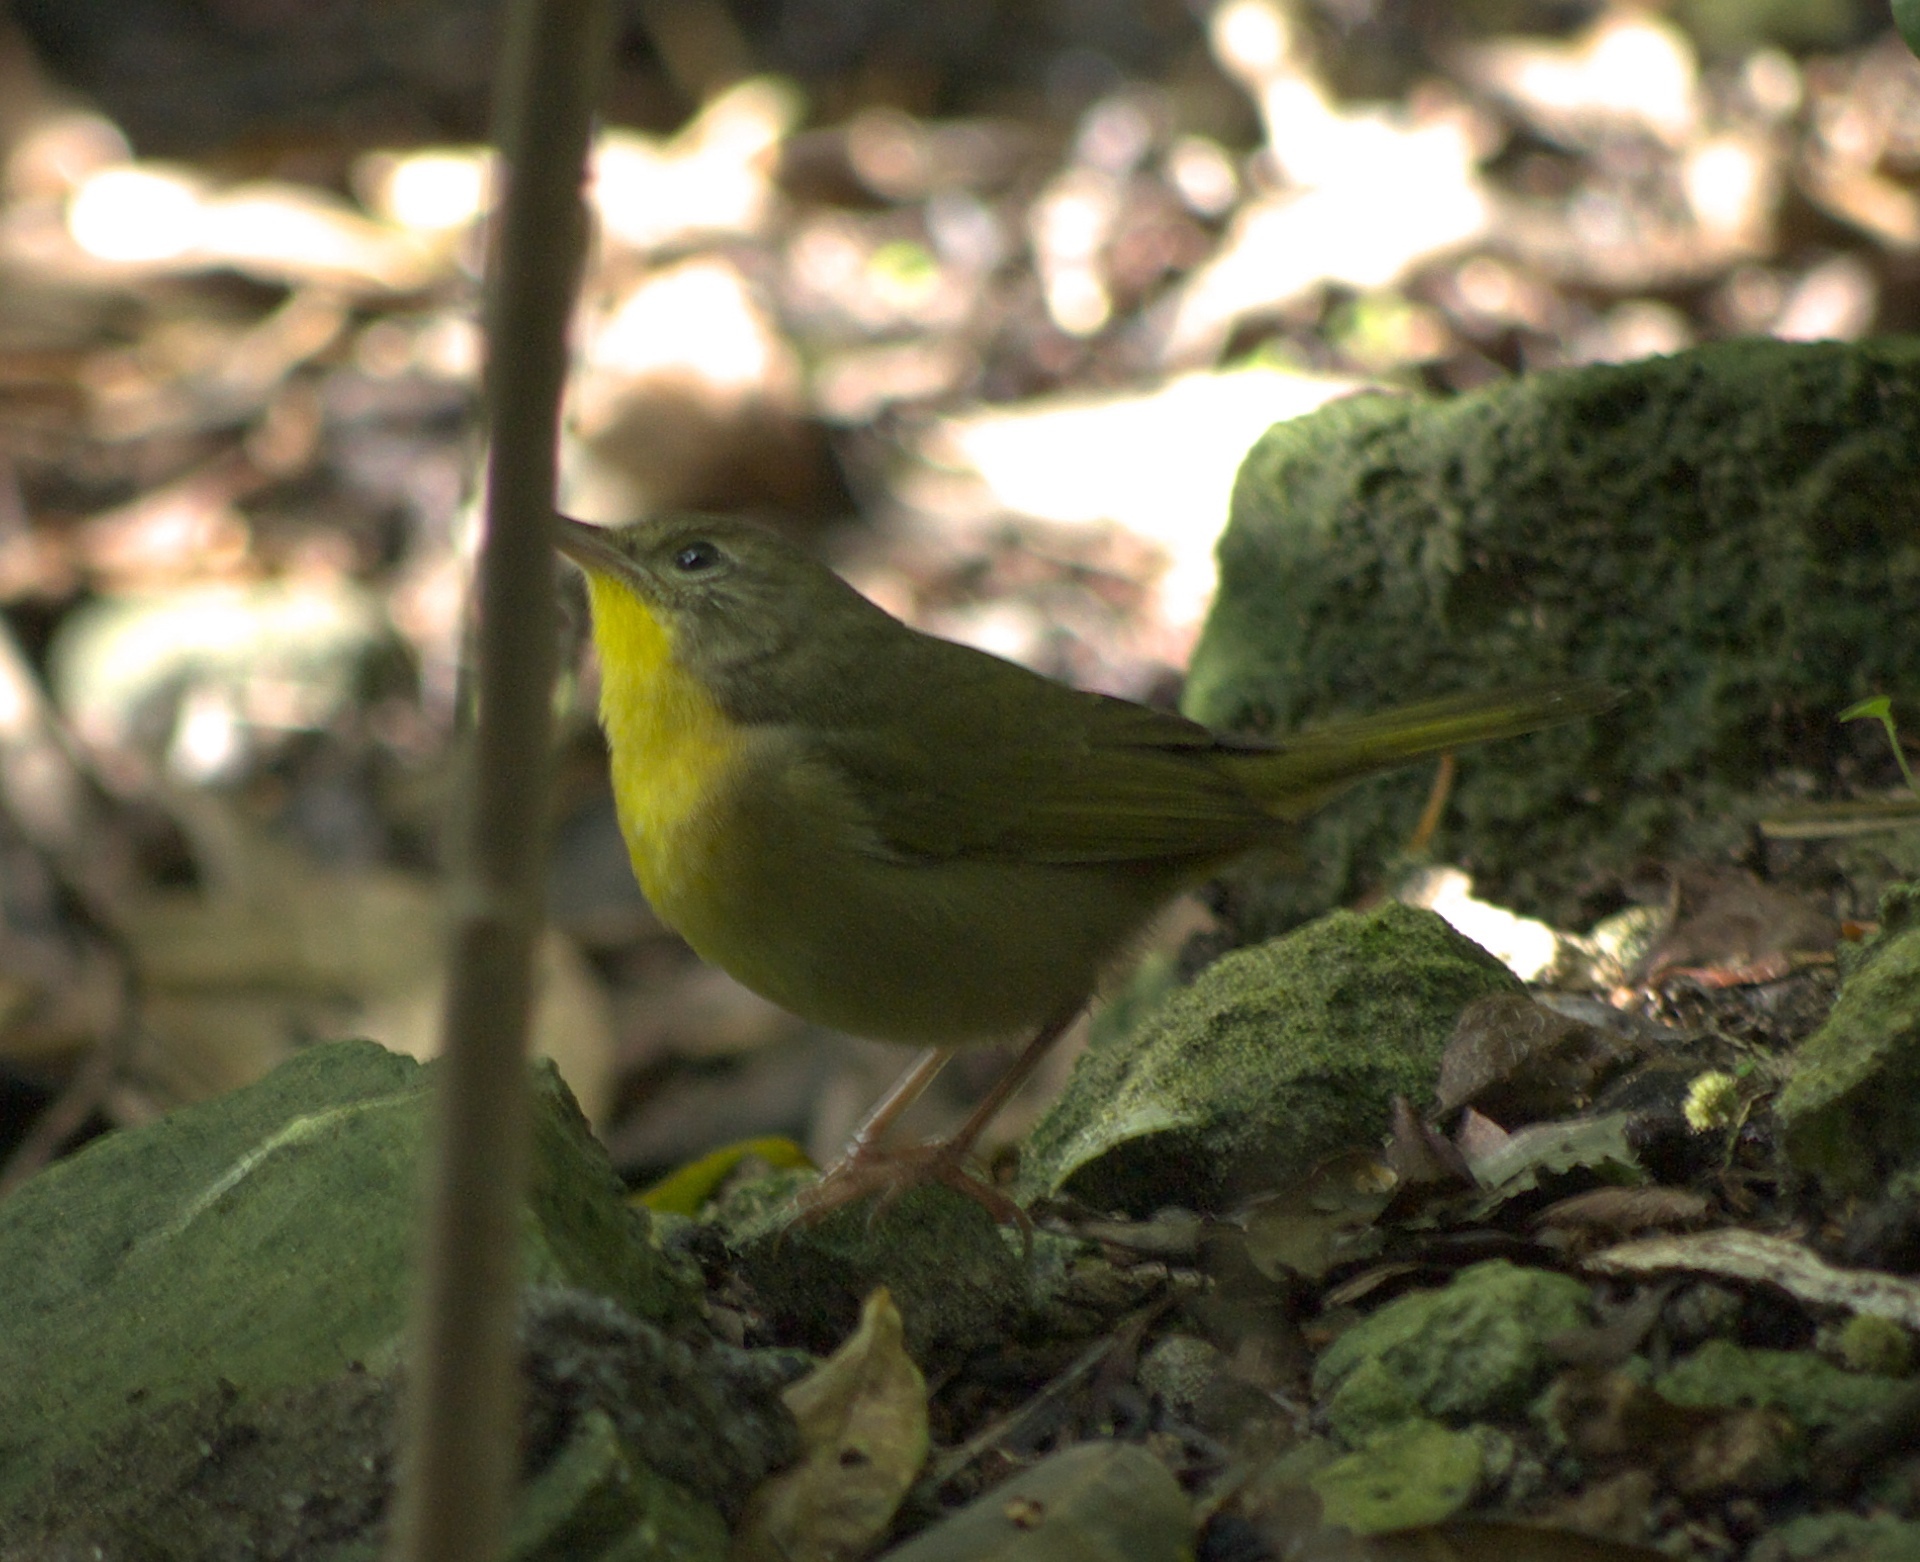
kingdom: Animalia
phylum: Chordata
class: Aves
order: Passeriformes
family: Parulidae
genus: Geothlypis
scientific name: Geothlypis trichas
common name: Common yellowthroat
